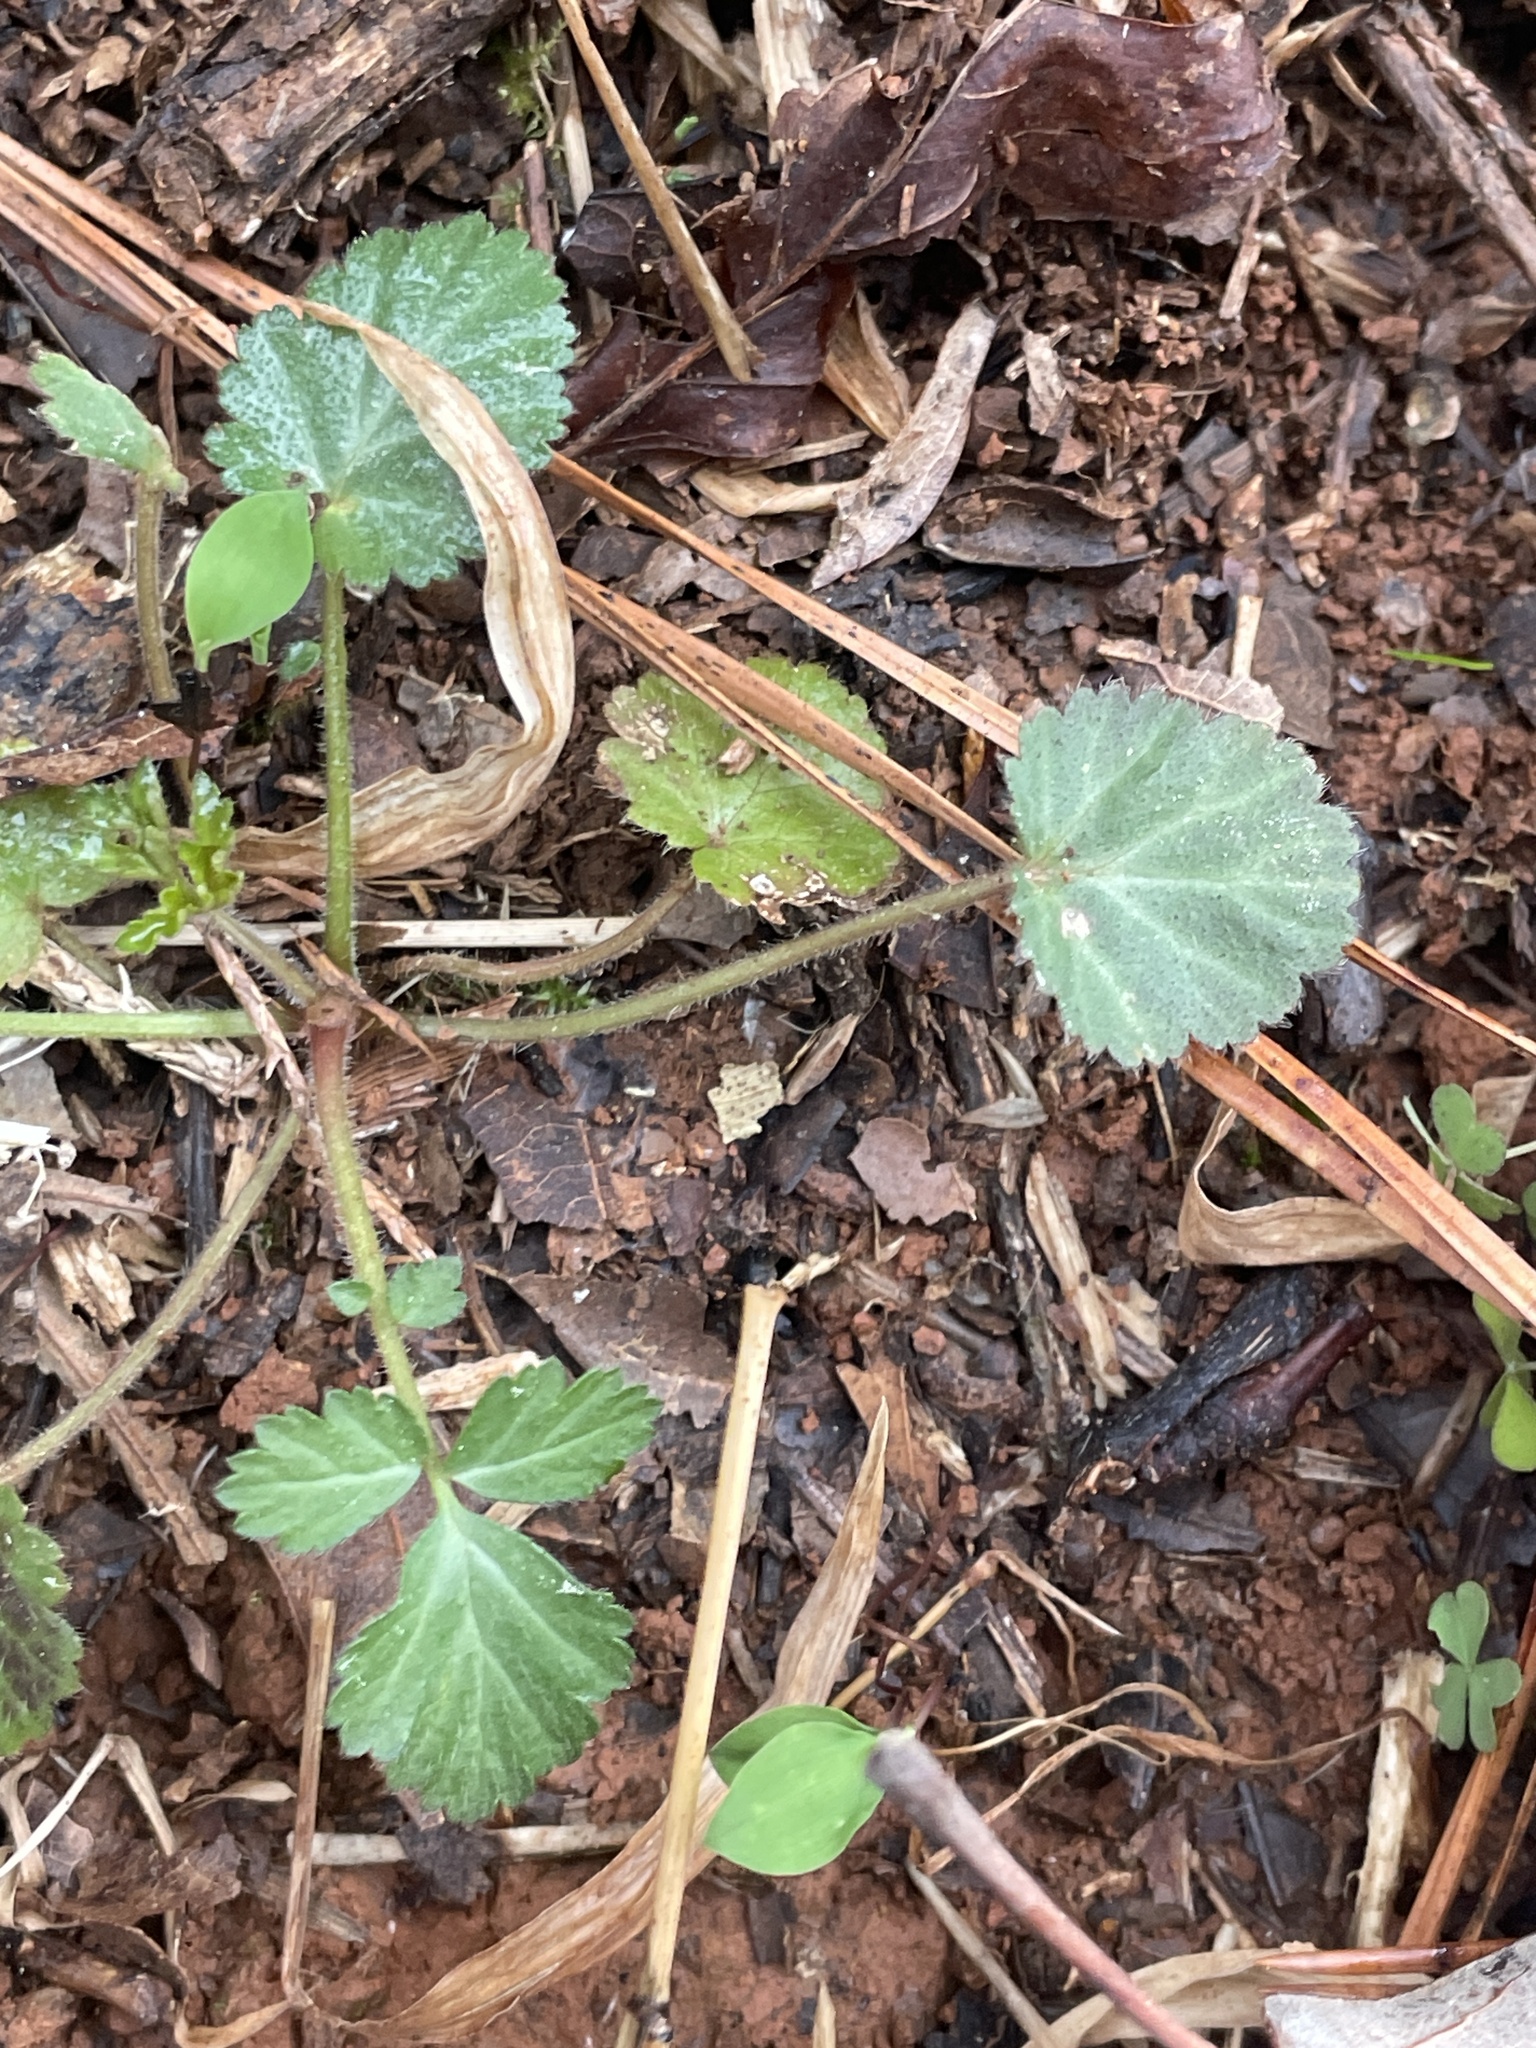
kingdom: Plantae
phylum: Tracheophyta
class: Magnoliopsida
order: Rosales
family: Rosaceae
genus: Geum
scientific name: Geum canadense
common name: White avens
